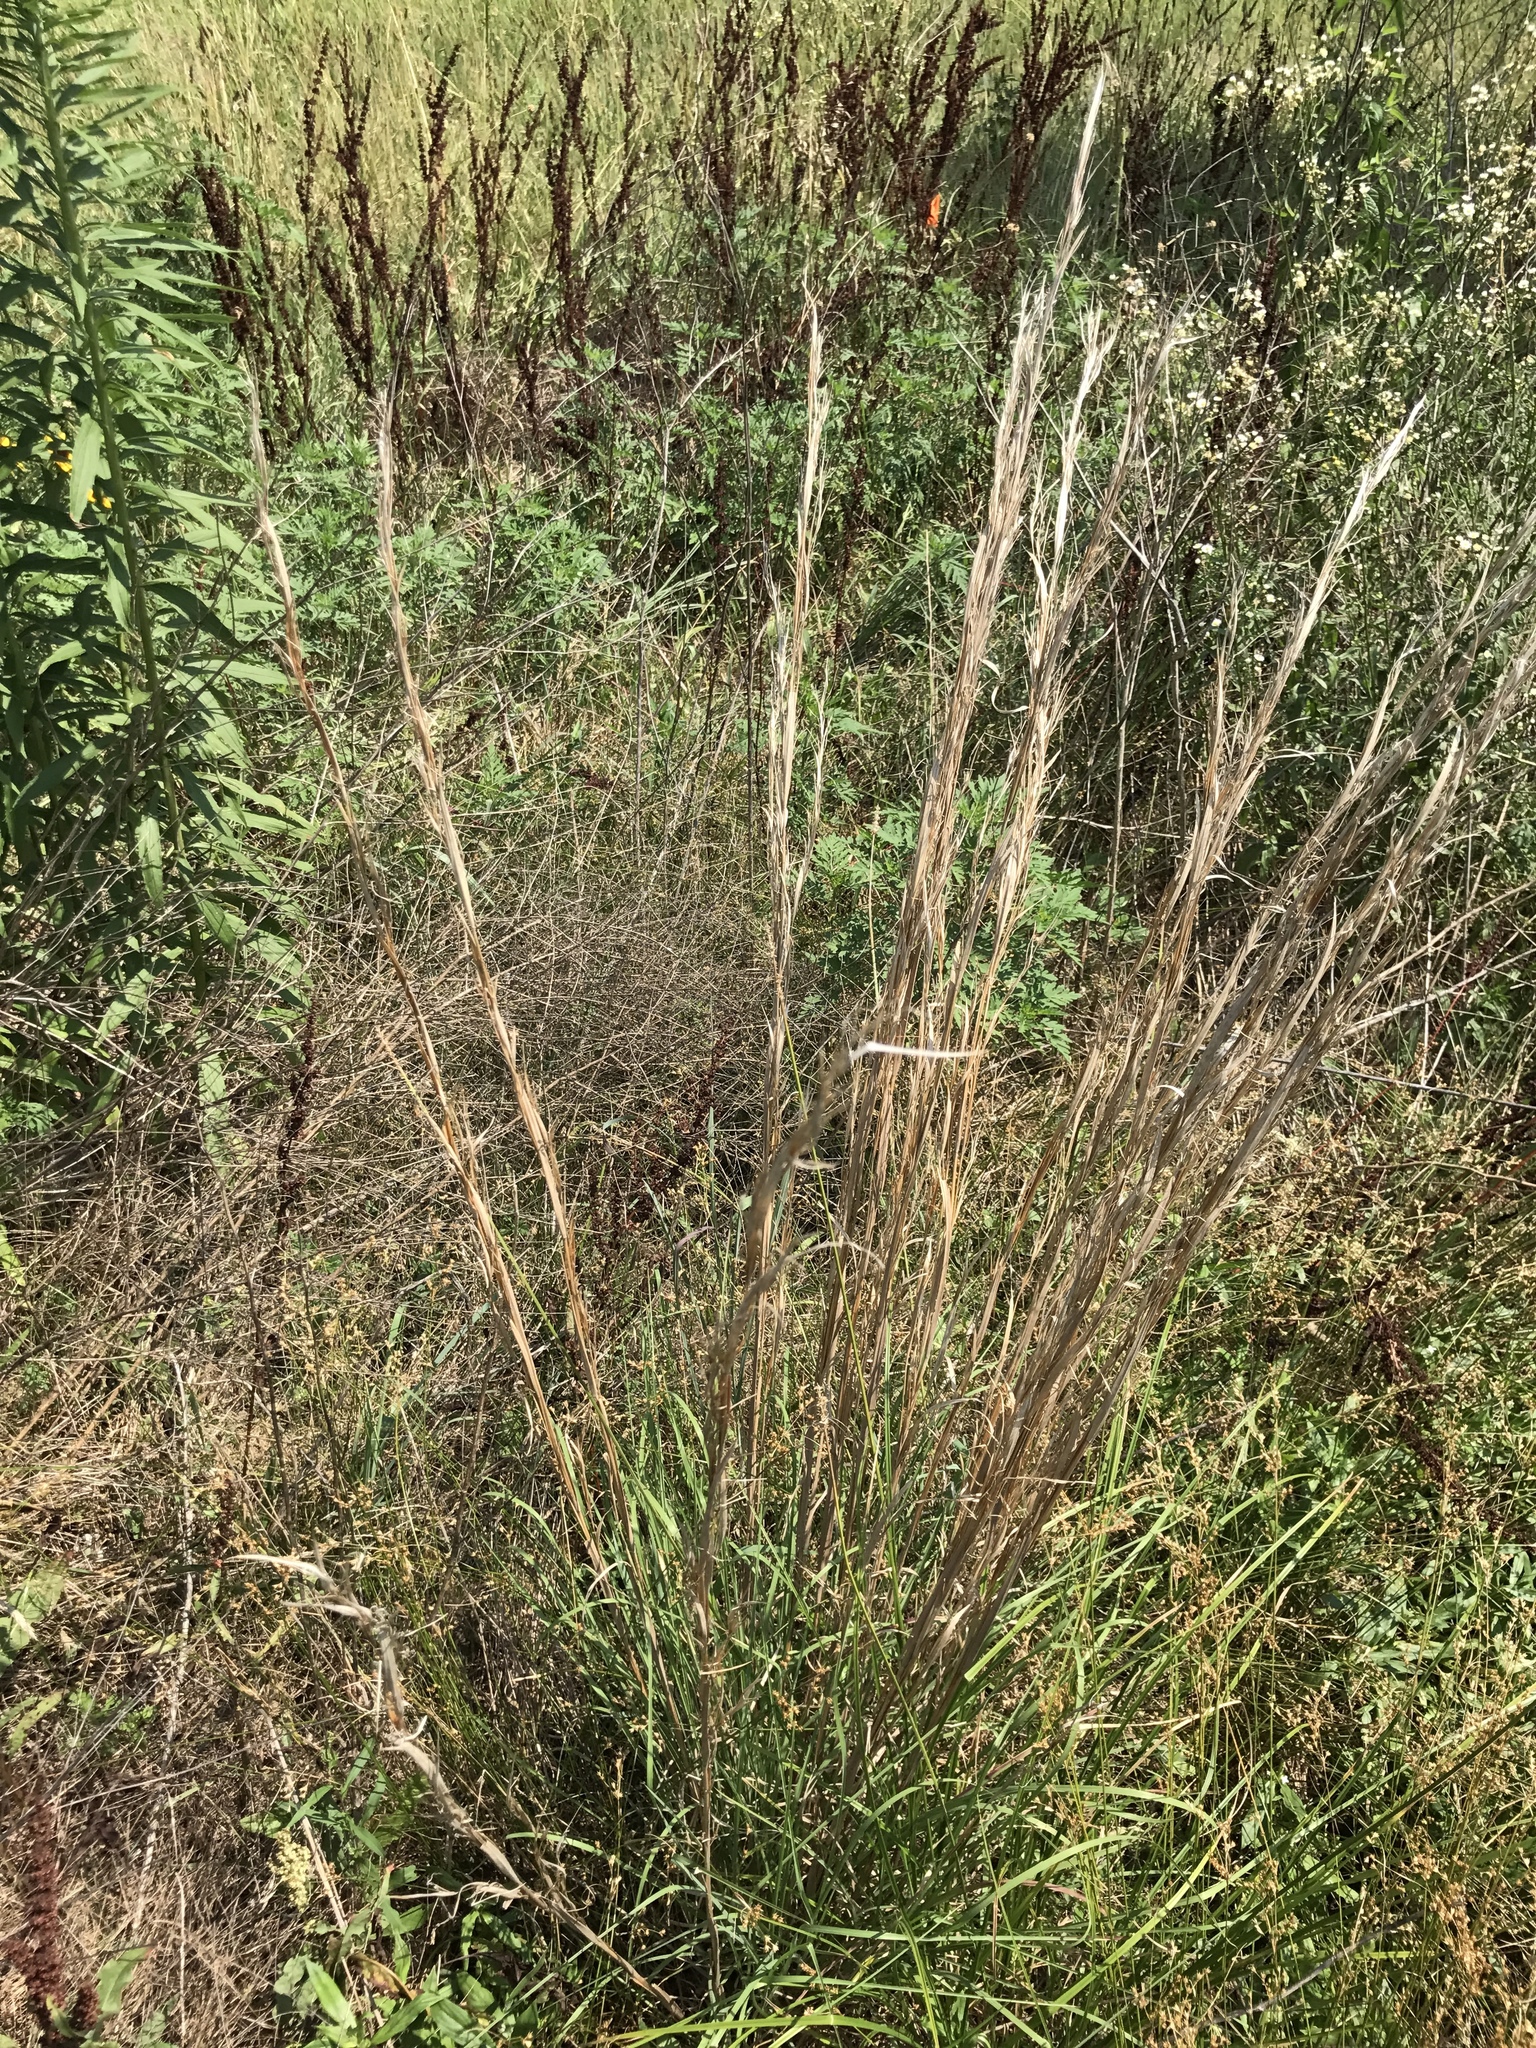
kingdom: Plantae
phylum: Tracheophyta
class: Liliopsida
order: Poales
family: Poaceae
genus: Andropogon
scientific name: Andropogon virginicus
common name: Broomsedge bluestem
